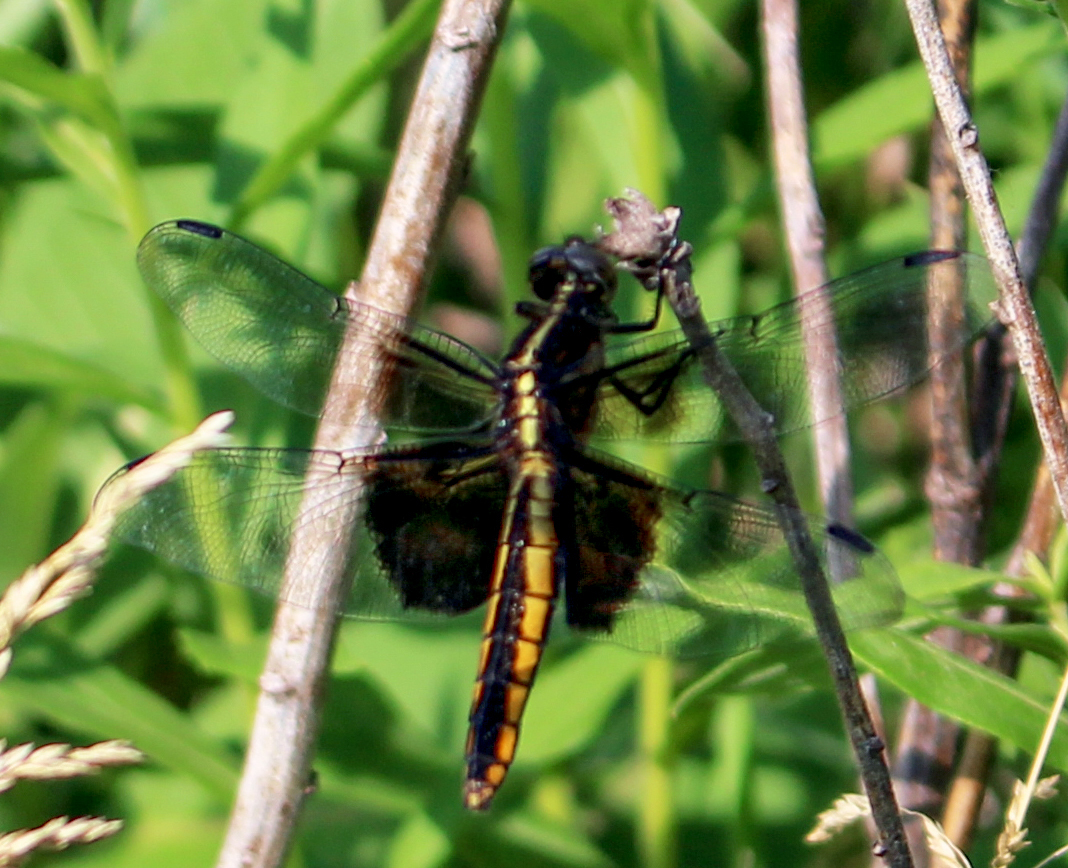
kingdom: Animalia
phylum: Arthropoda
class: Insecta
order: Odonata
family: Libellulidae
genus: Libellula
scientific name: Libellula luctuosa
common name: Widow skimmer
